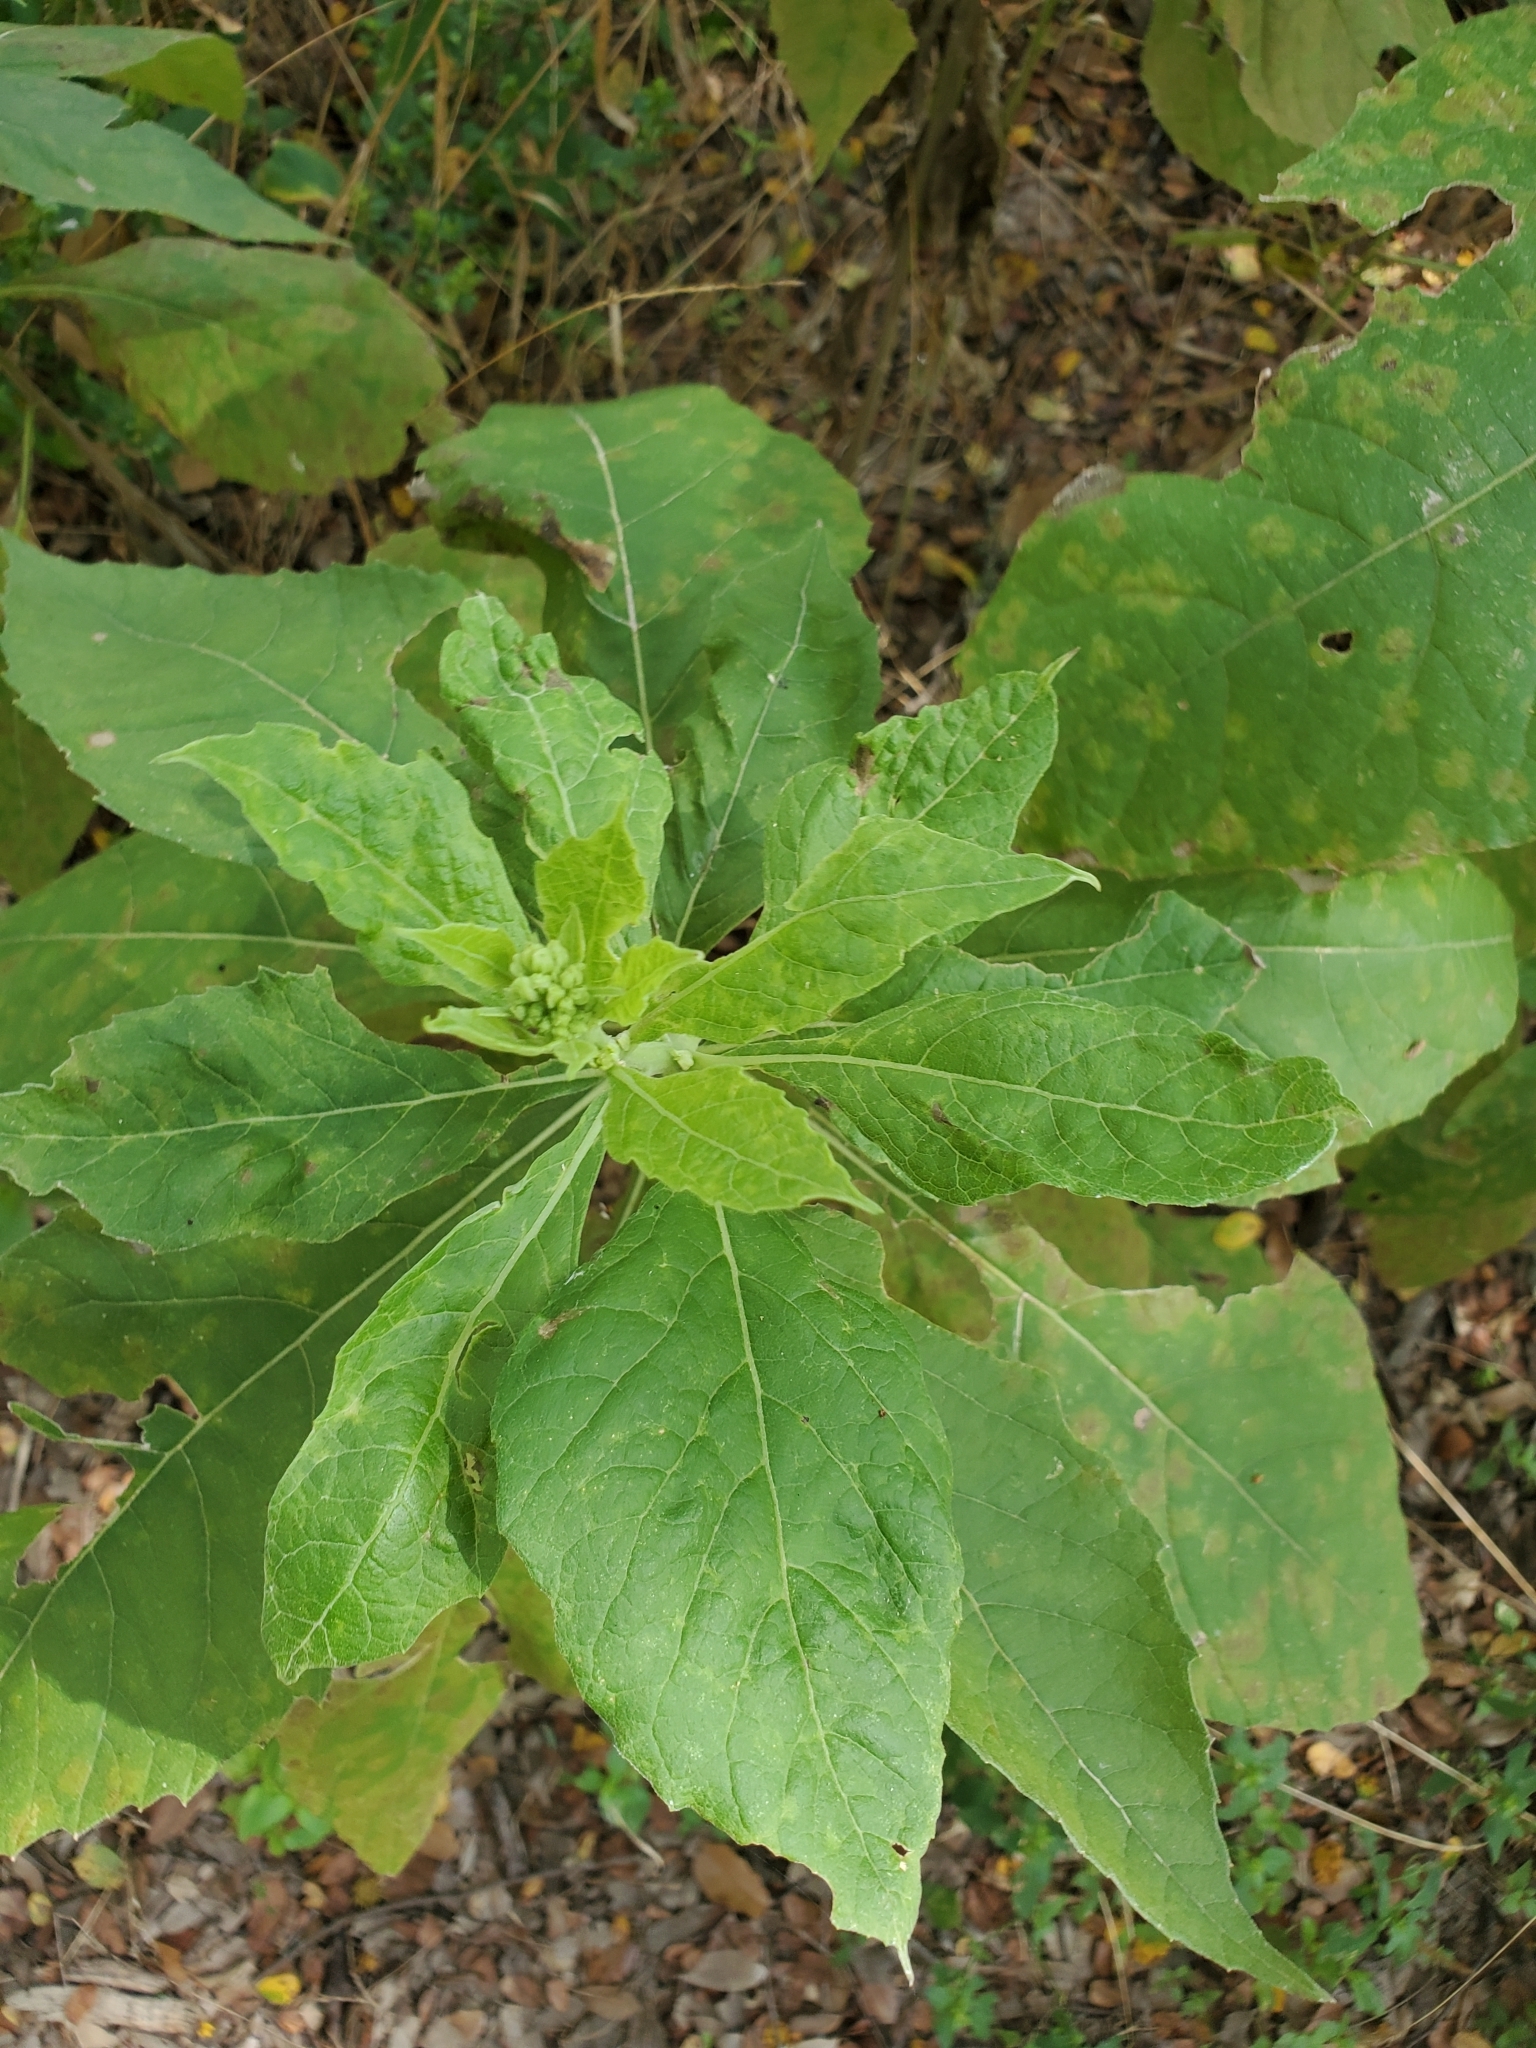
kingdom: Plantae
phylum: Tracheophyta
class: Magnoliopsida
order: Asterales
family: Asteraceae
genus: Verbesina
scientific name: Verbesina virginica
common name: Frostweed
